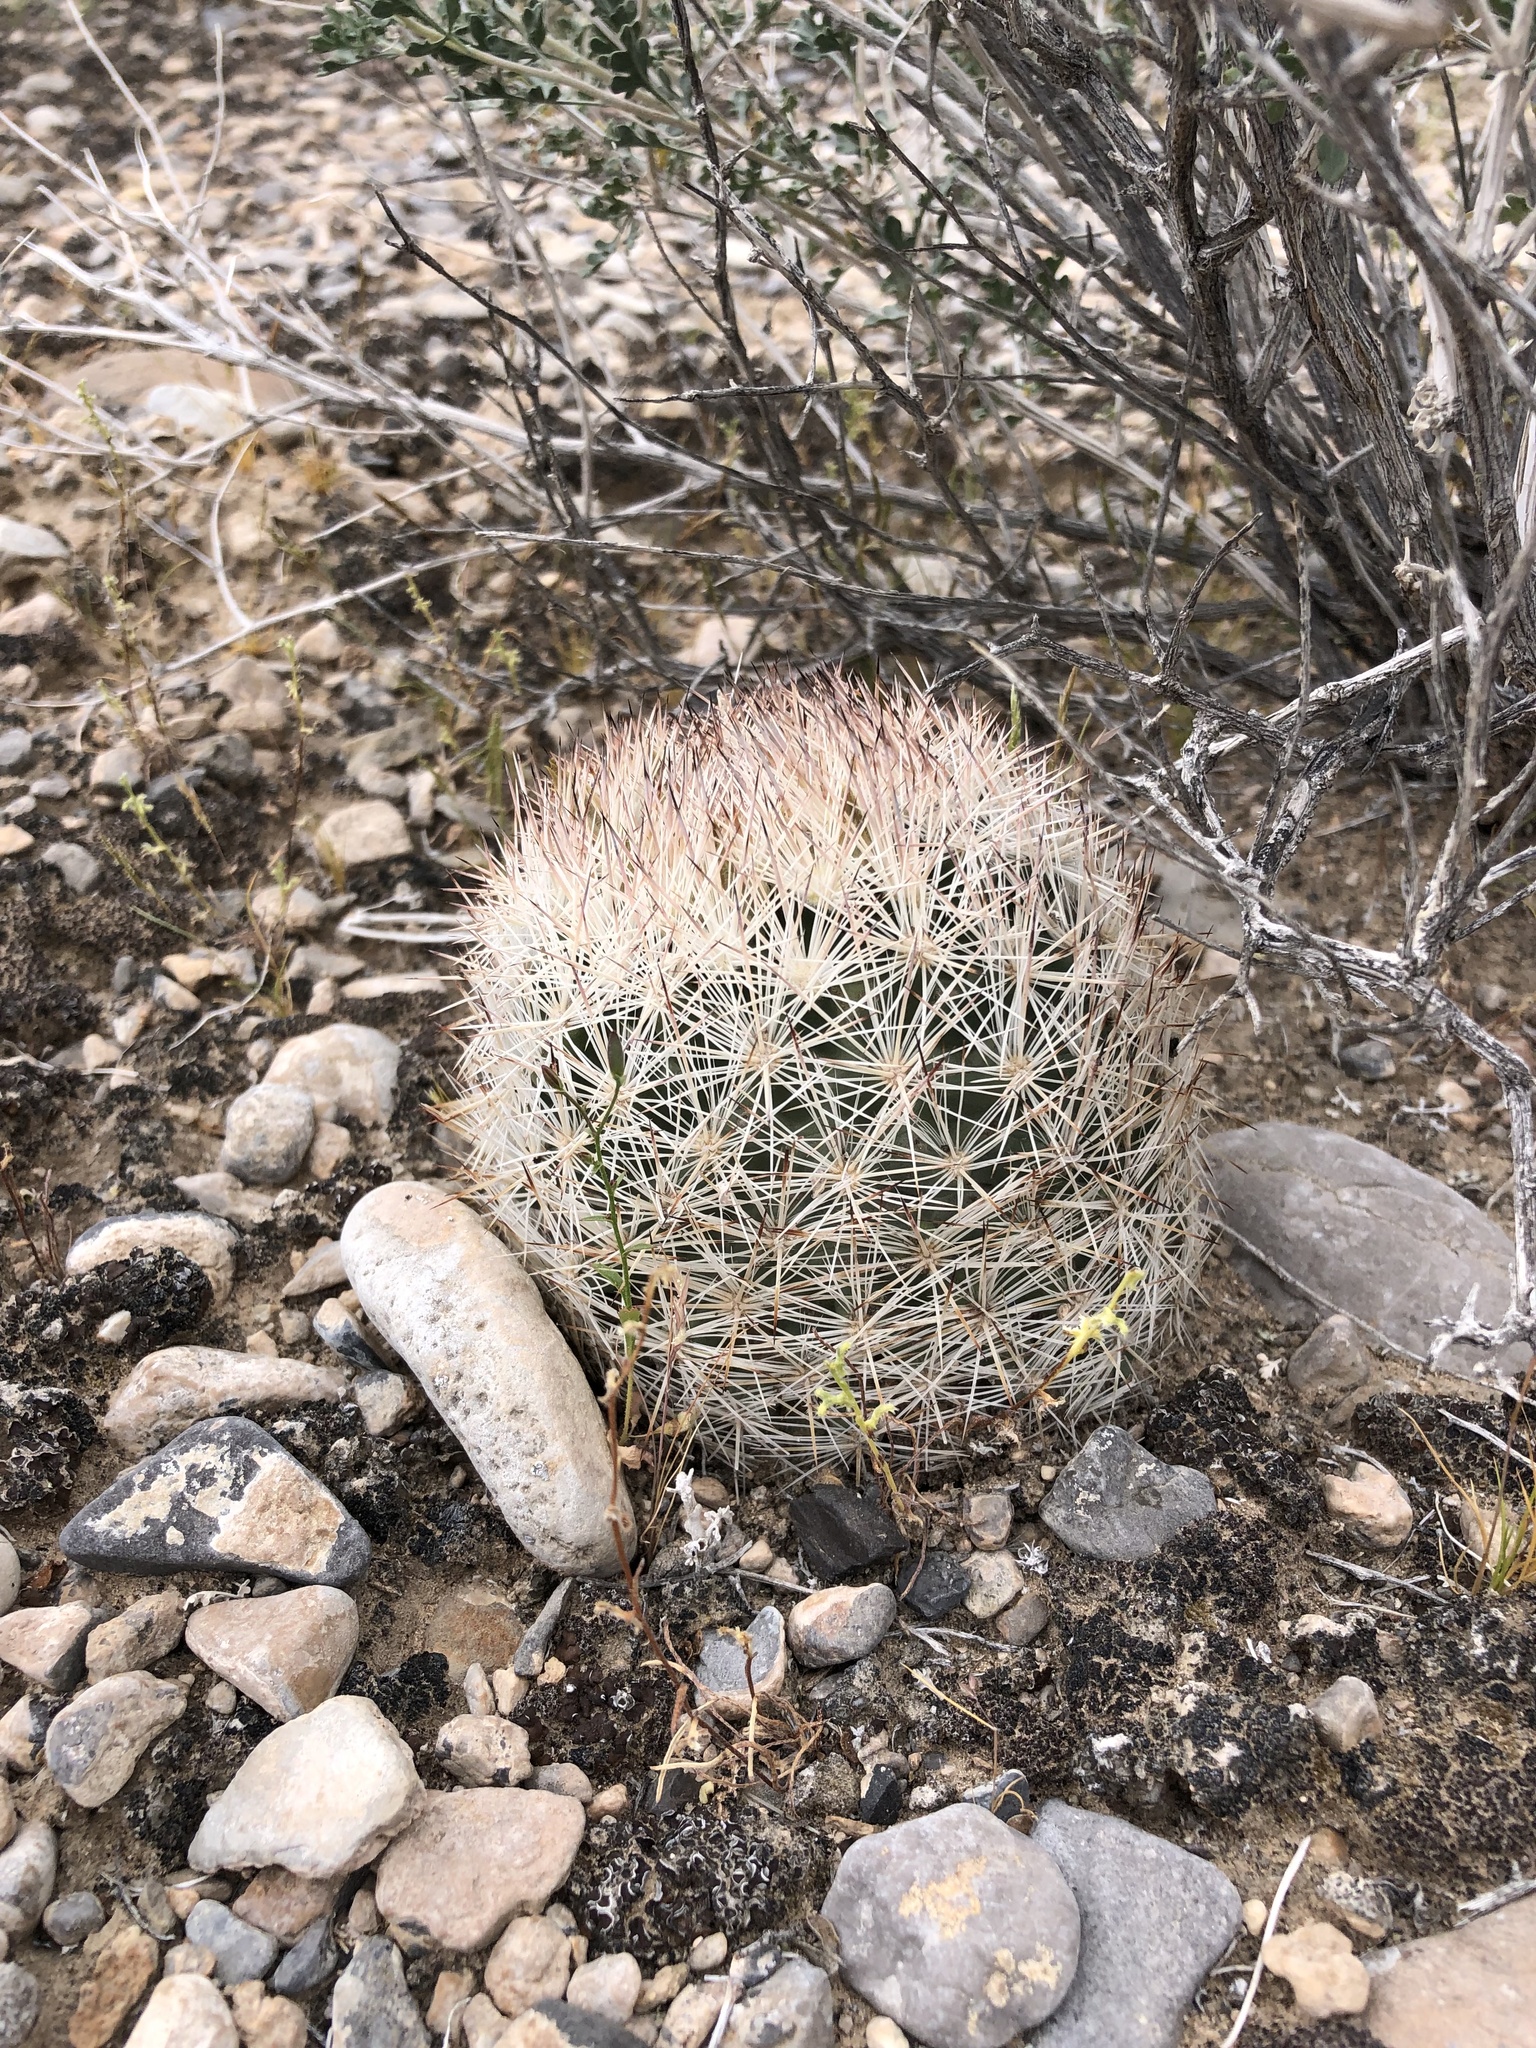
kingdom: Plantae
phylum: Tracheophyta
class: Magnoliopsida
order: Caryophyllales
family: Cactaceae
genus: Pelecyphora
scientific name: Pelecyphora dasyacantha
